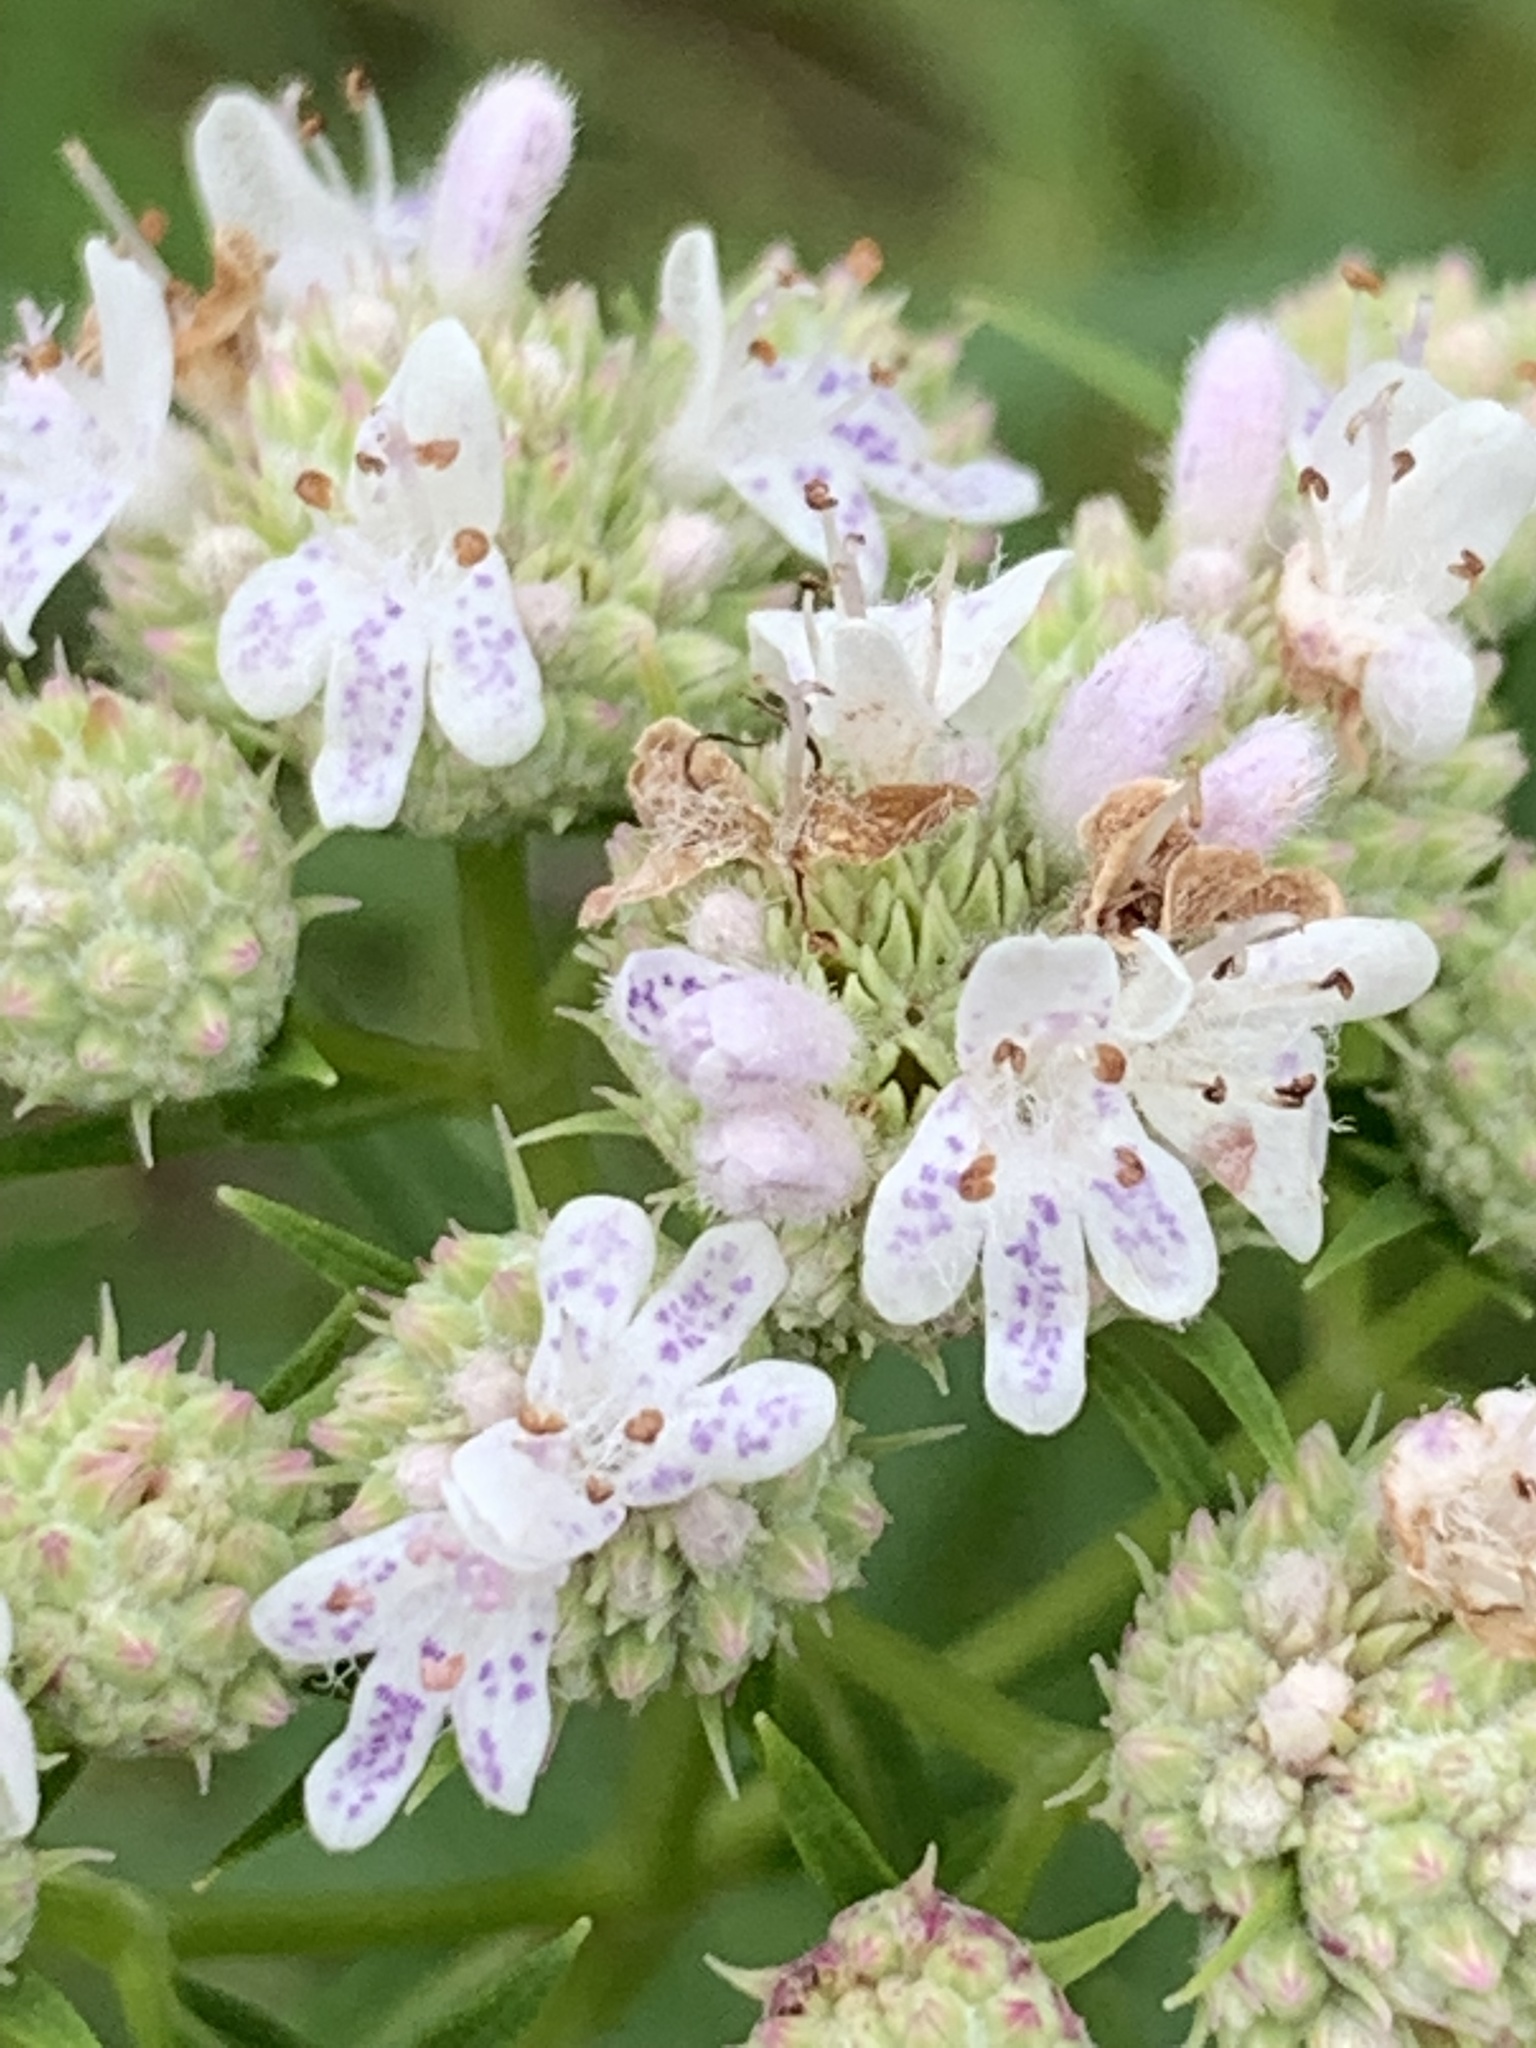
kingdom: Plantae
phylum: Tracheophyta
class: Magnoliopsida
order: Lamiales
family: Lamiaceae
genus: Pycnanthemum
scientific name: Pycnanthemum tenuifolium
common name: Narrow-leaf mountain-mint
